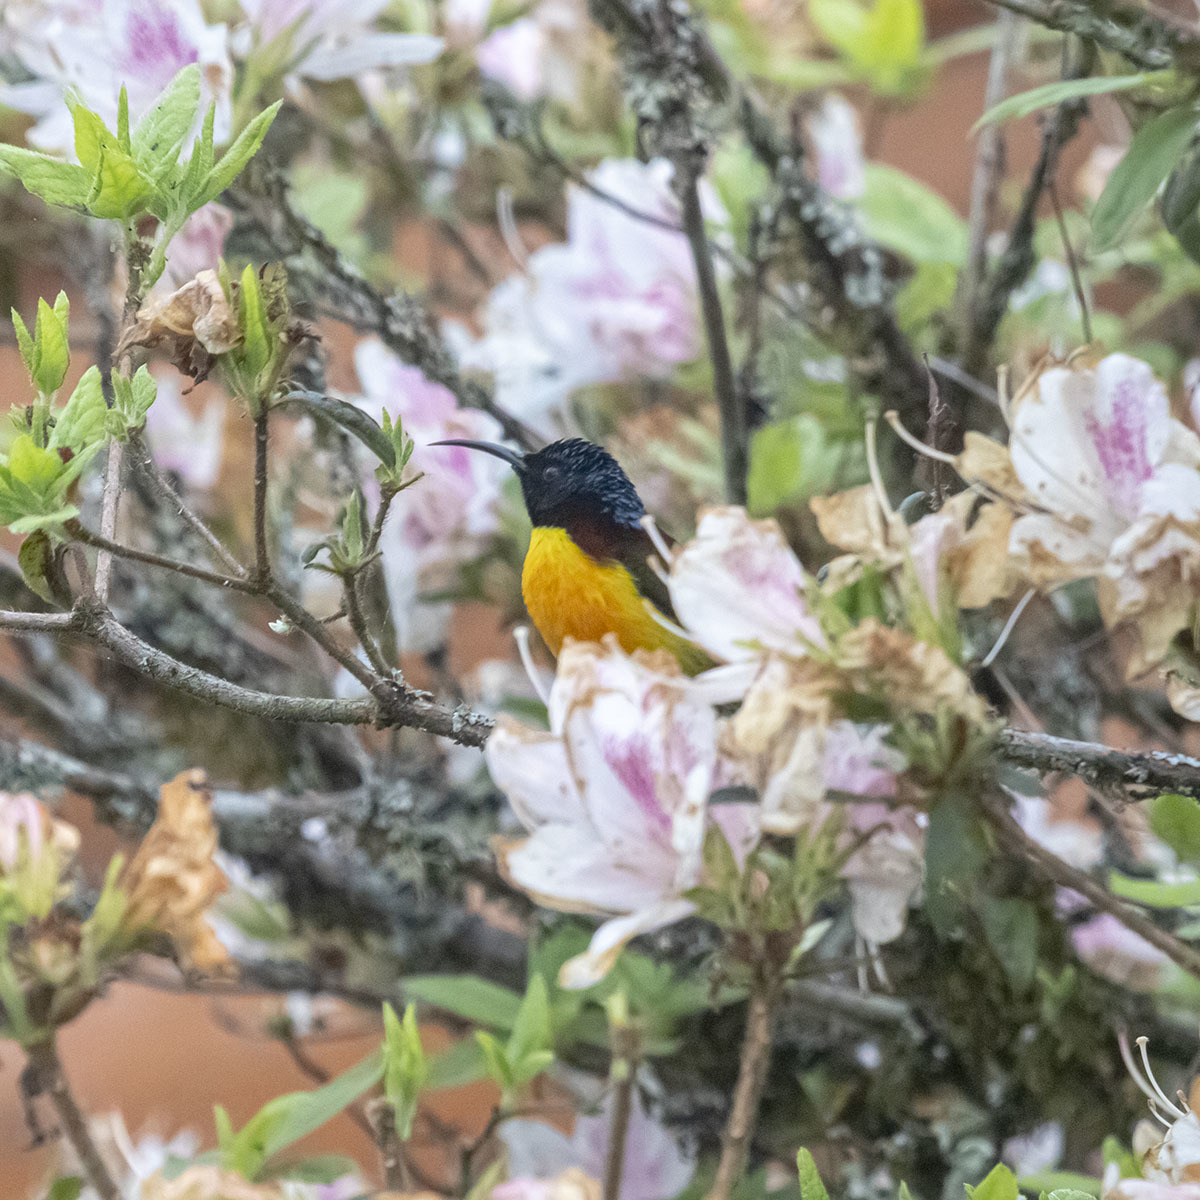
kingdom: Animalia
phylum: Chordata
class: Aves
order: Passeriformes
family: Nectariniidae
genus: Aethopyga
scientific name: Aethopyga nipalensis
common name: Green-tailed sunbird
